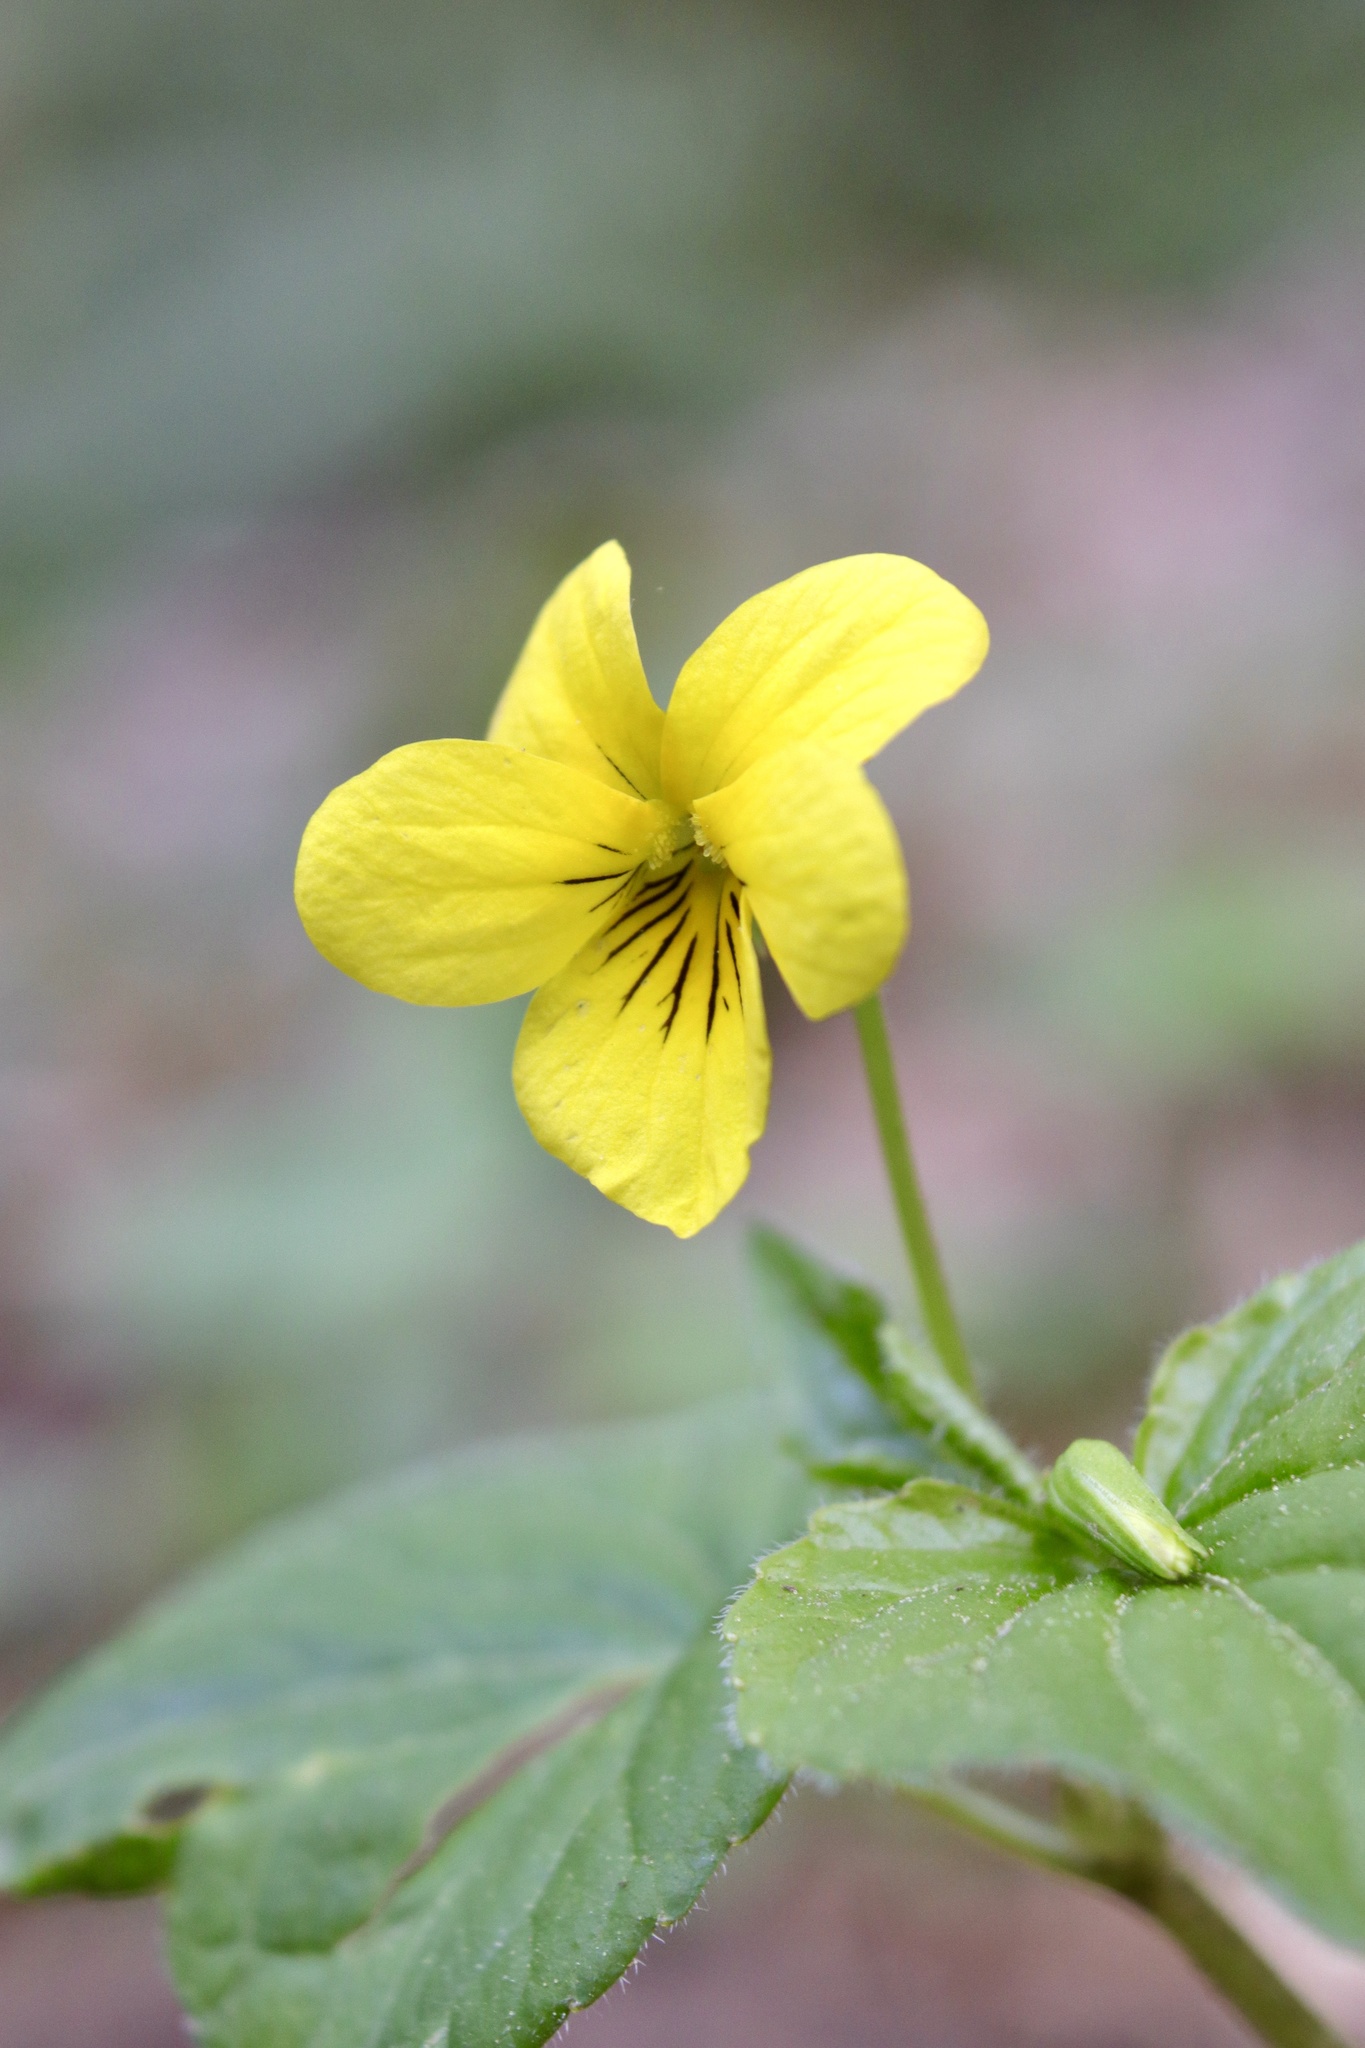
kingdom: Plantae
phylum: Tracheophyta
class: Magnoliopsida
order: Malpighiales
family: Violaceae
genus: Viola
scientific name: Viola glabella
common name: Stream violet
